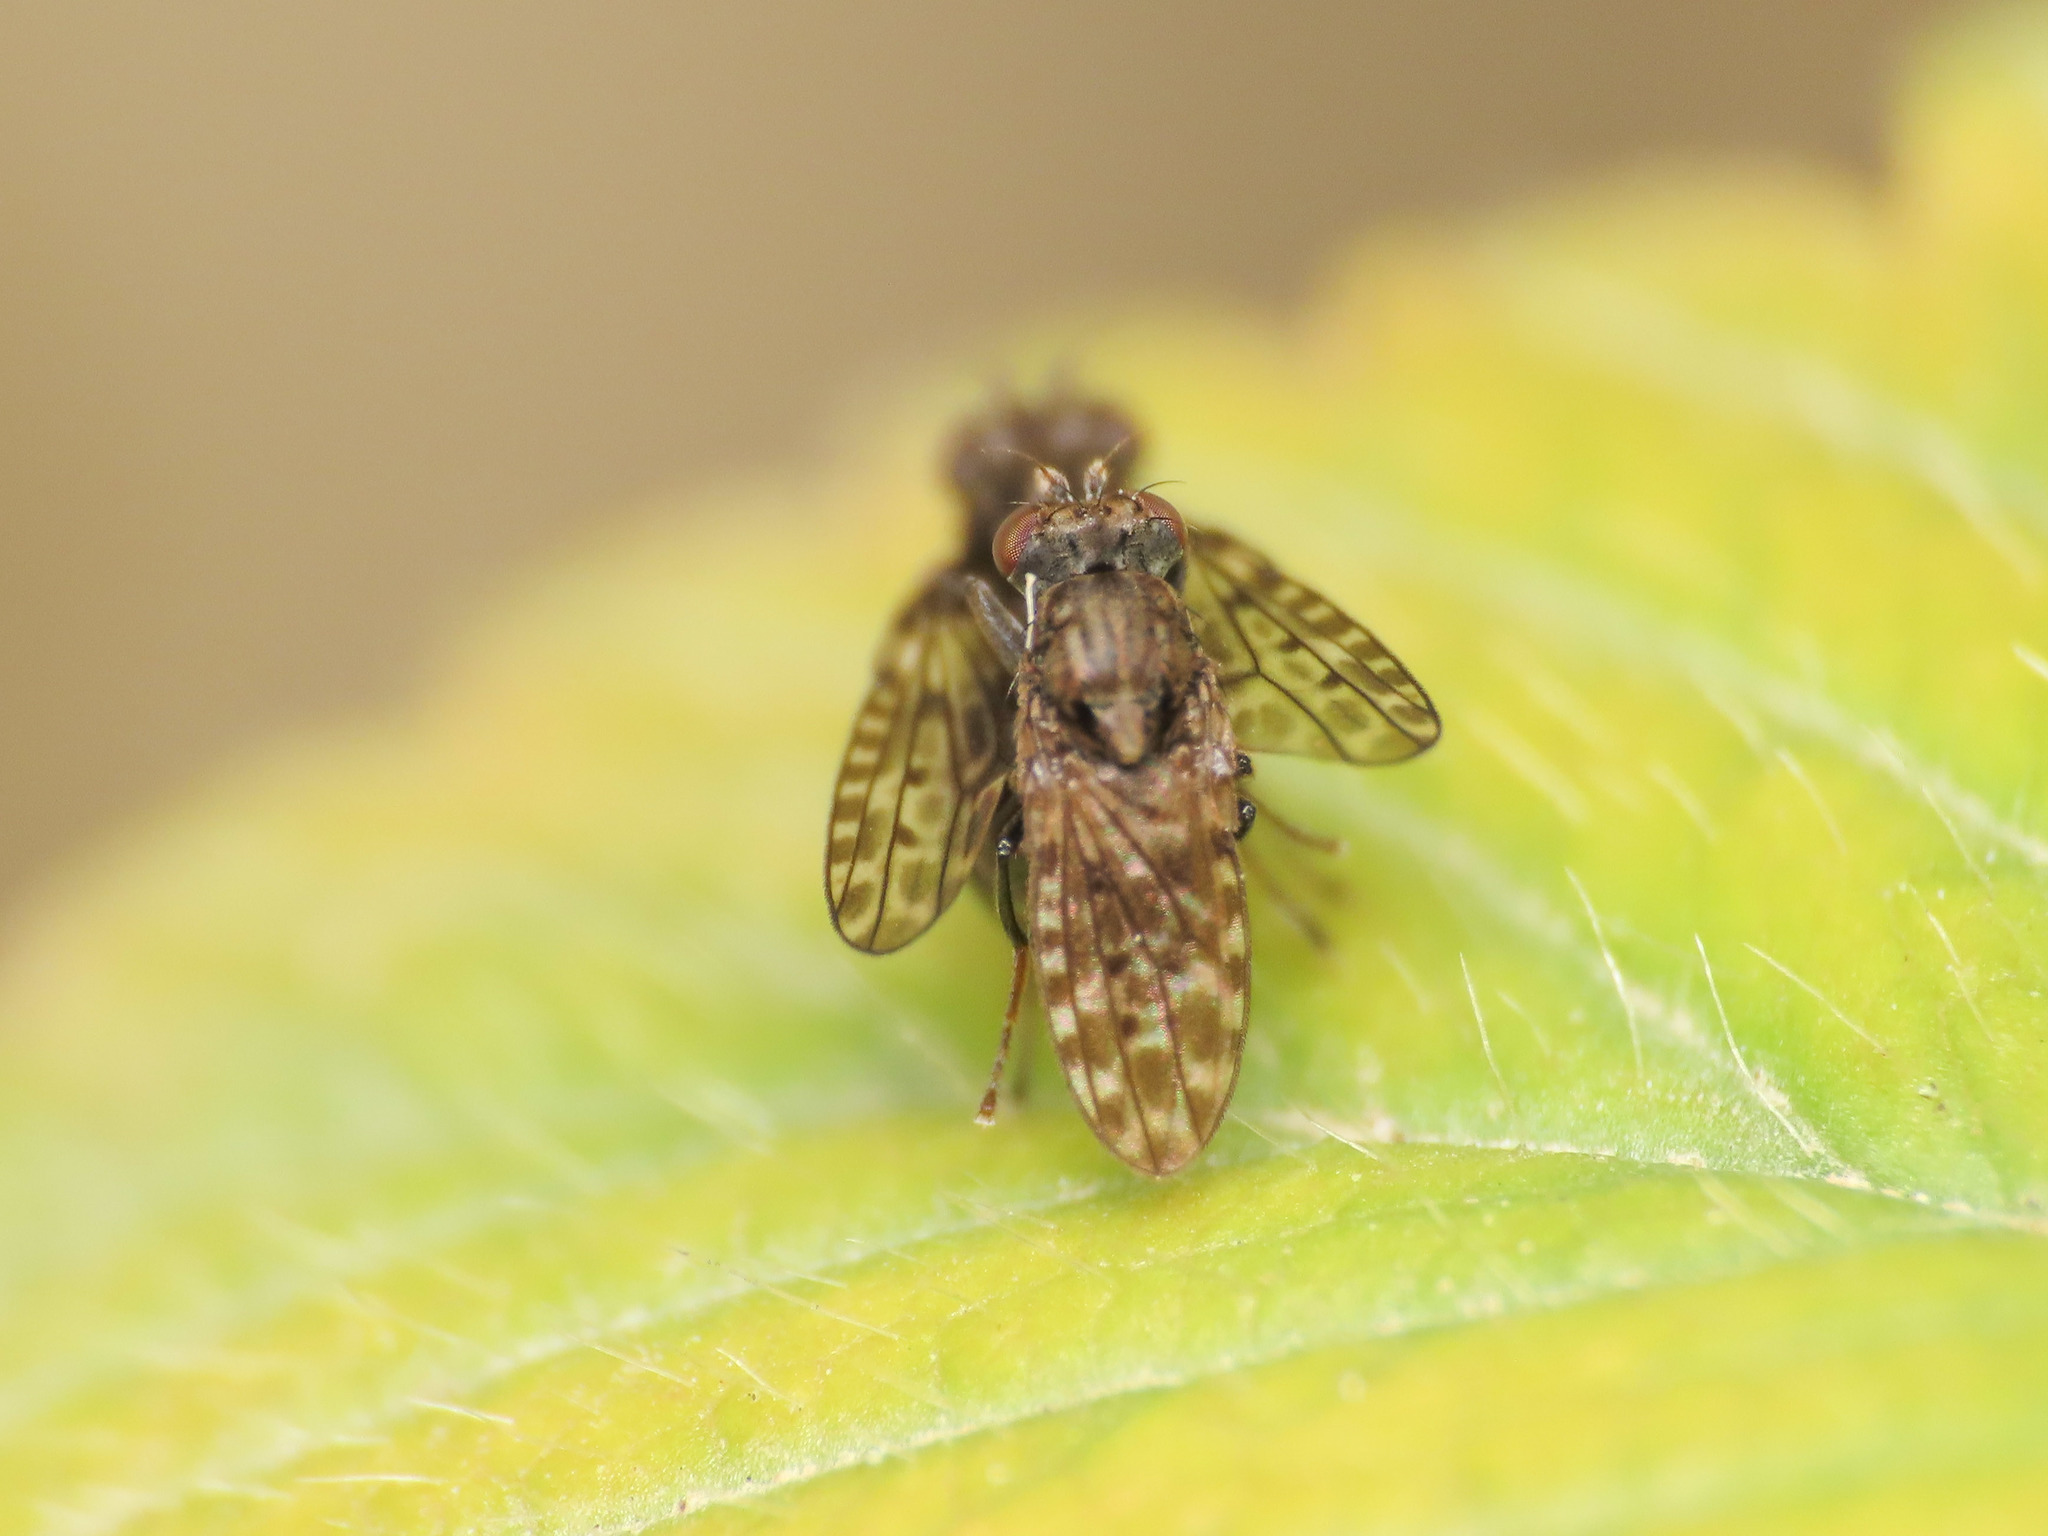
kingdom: Animalia
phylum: Arthropoda
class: Insecta
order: Diptera
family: Ephydridae
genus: Limnellia
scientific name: Limnellia quadrata
